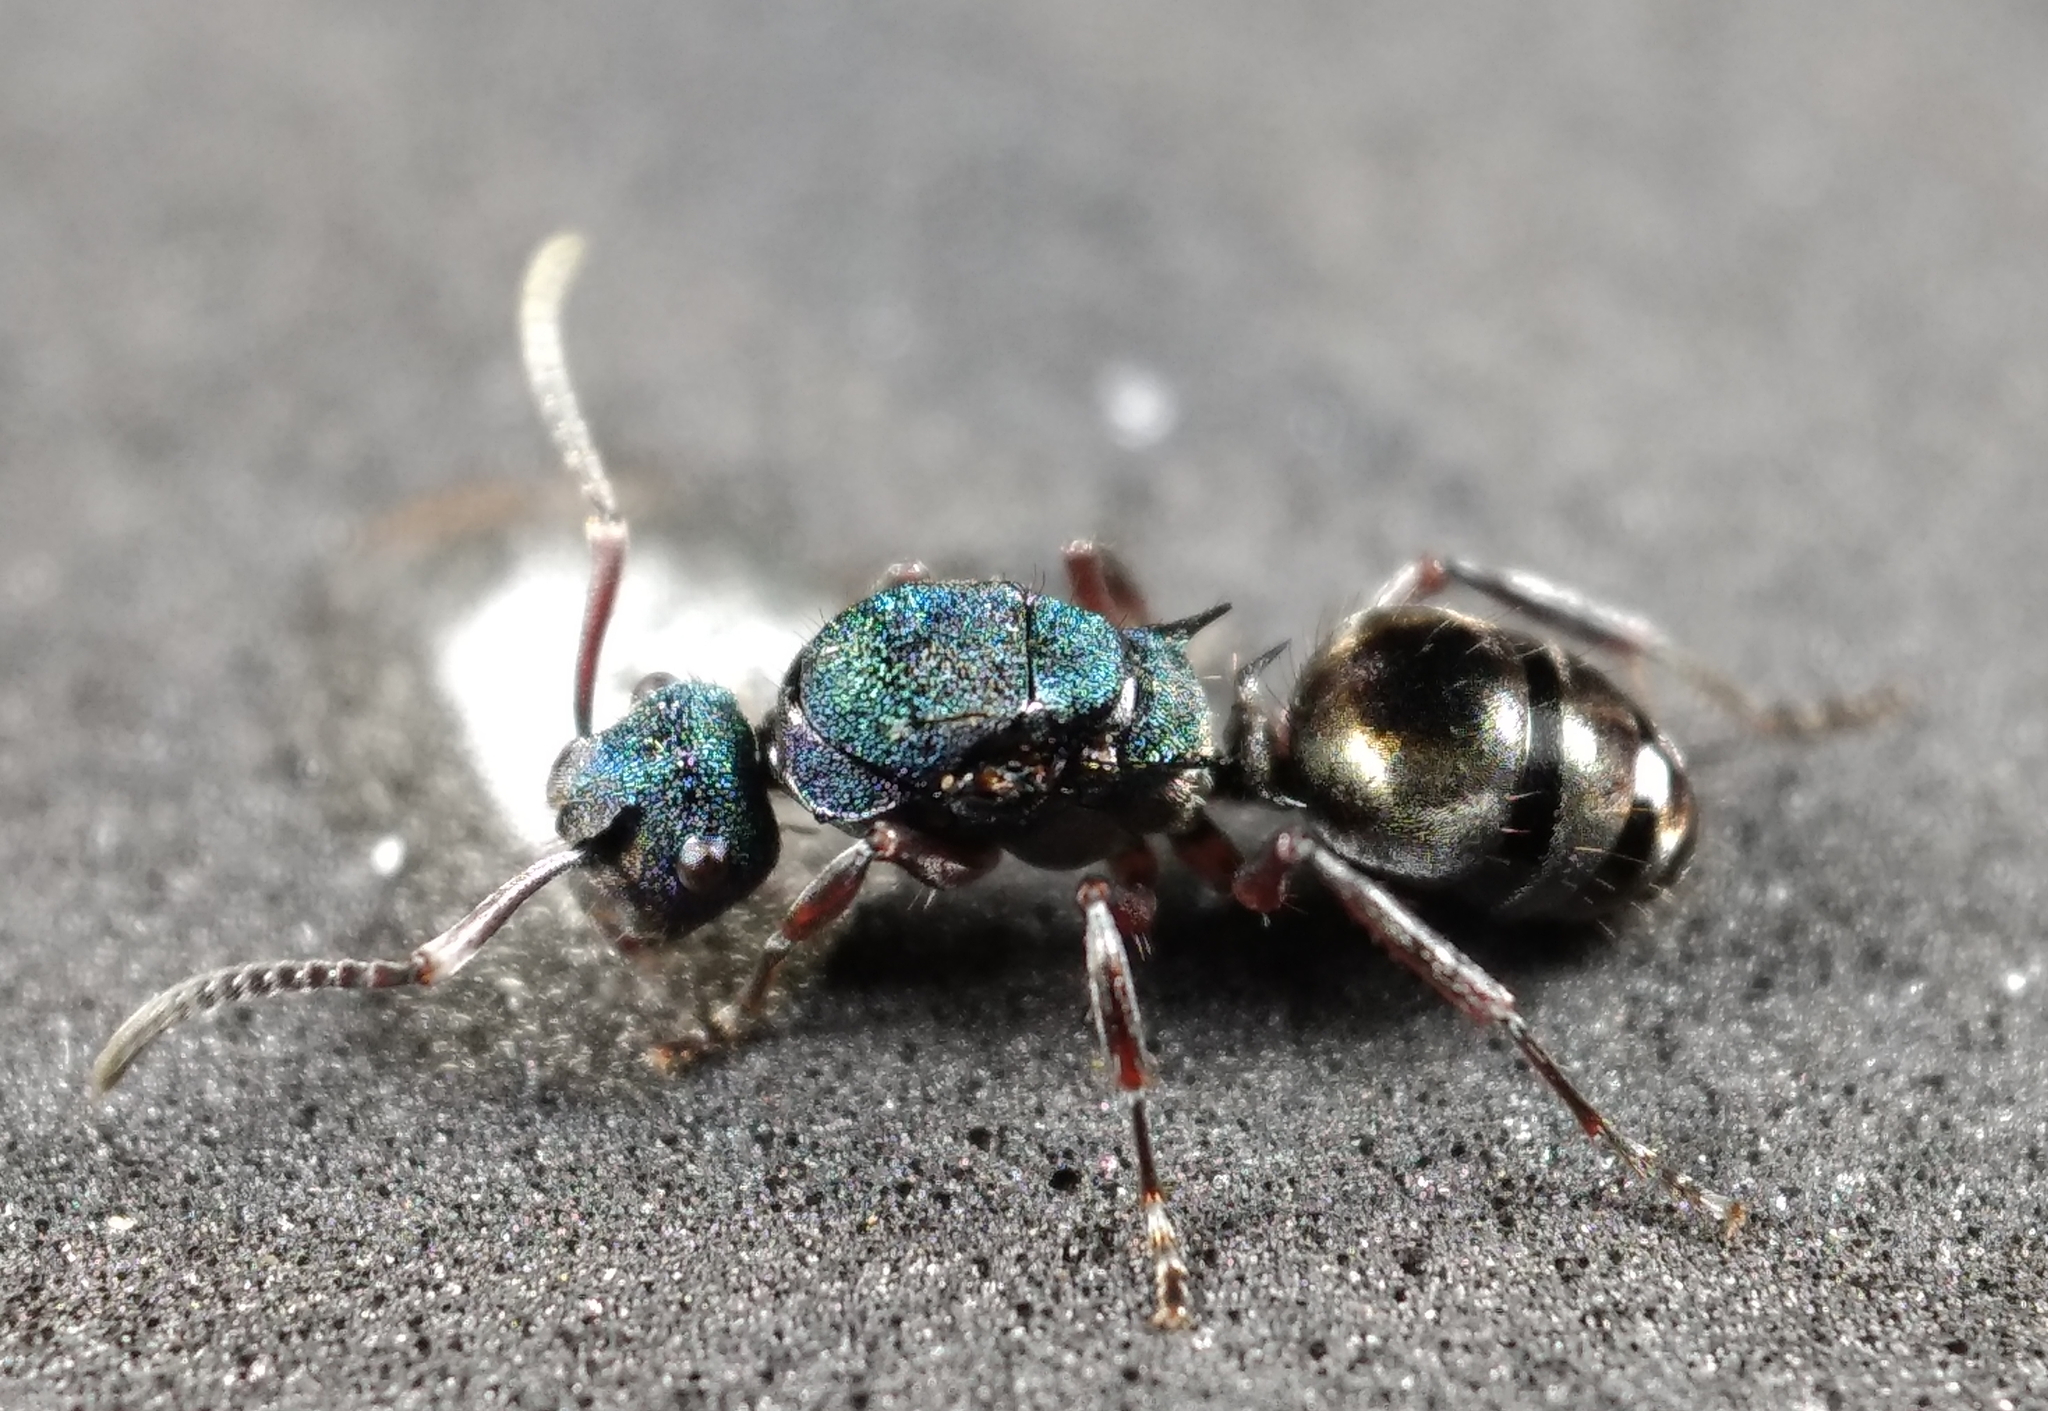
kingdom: Animalia
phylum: Arthropoda
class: Insecta
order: Hymenoptera
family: Formicidae
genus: Polyrhachis
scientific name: Polyrhachis hookeri
